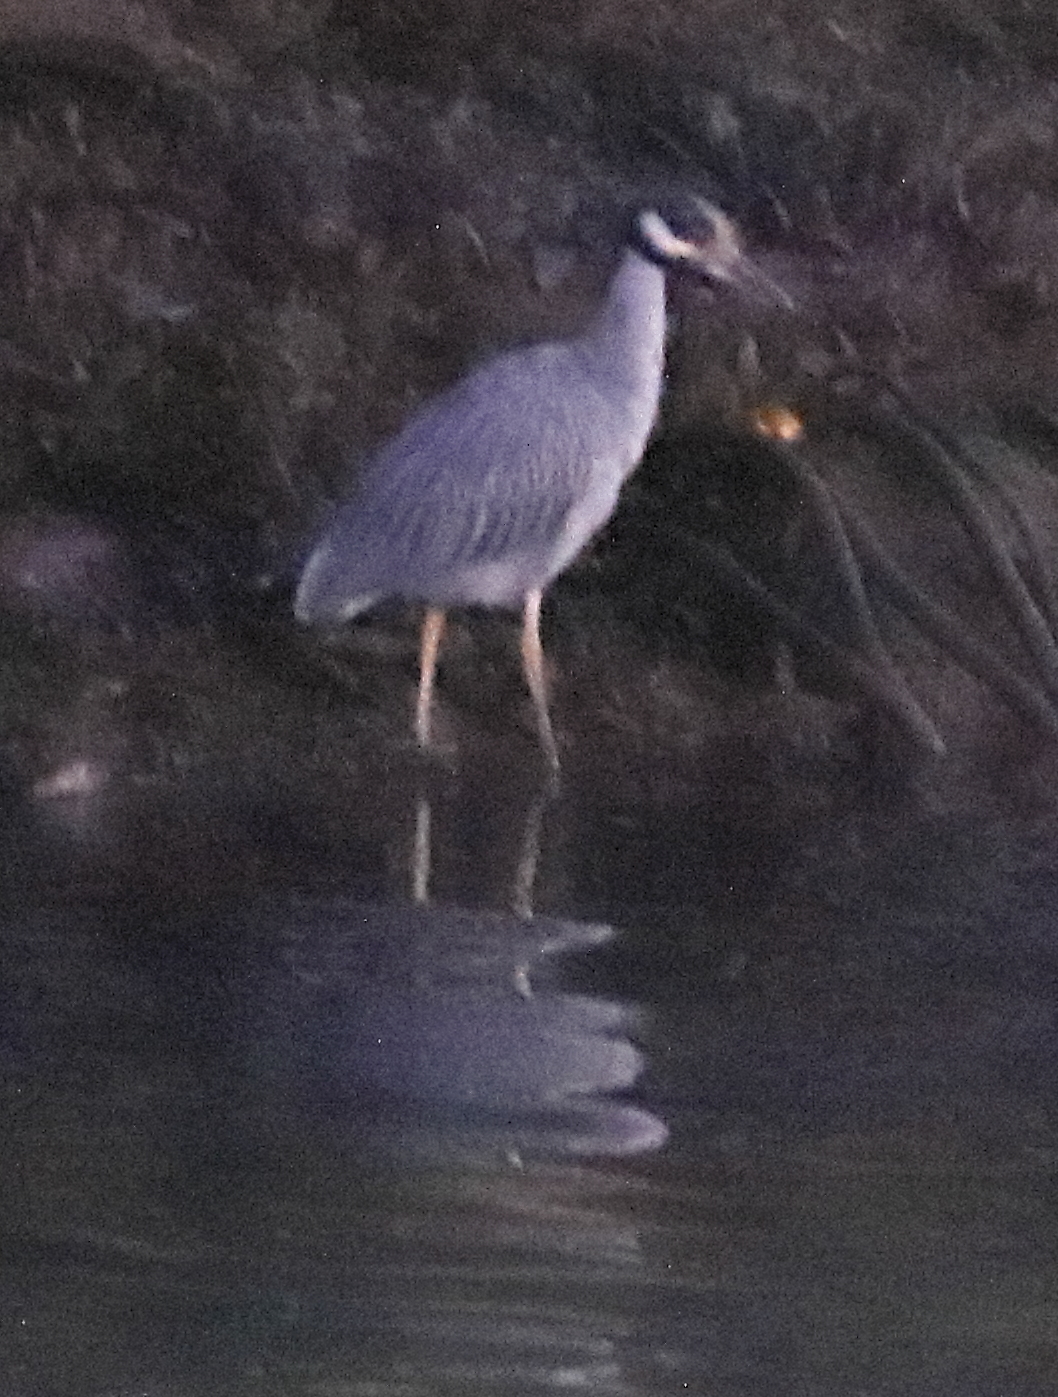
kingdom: Animalia
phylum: Chordata
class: Aves
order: Pelecaniformes
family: Ardeidae
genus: Nyctanassa
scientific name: Nyctanassa violacea
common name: Yellow-crowned night heron
